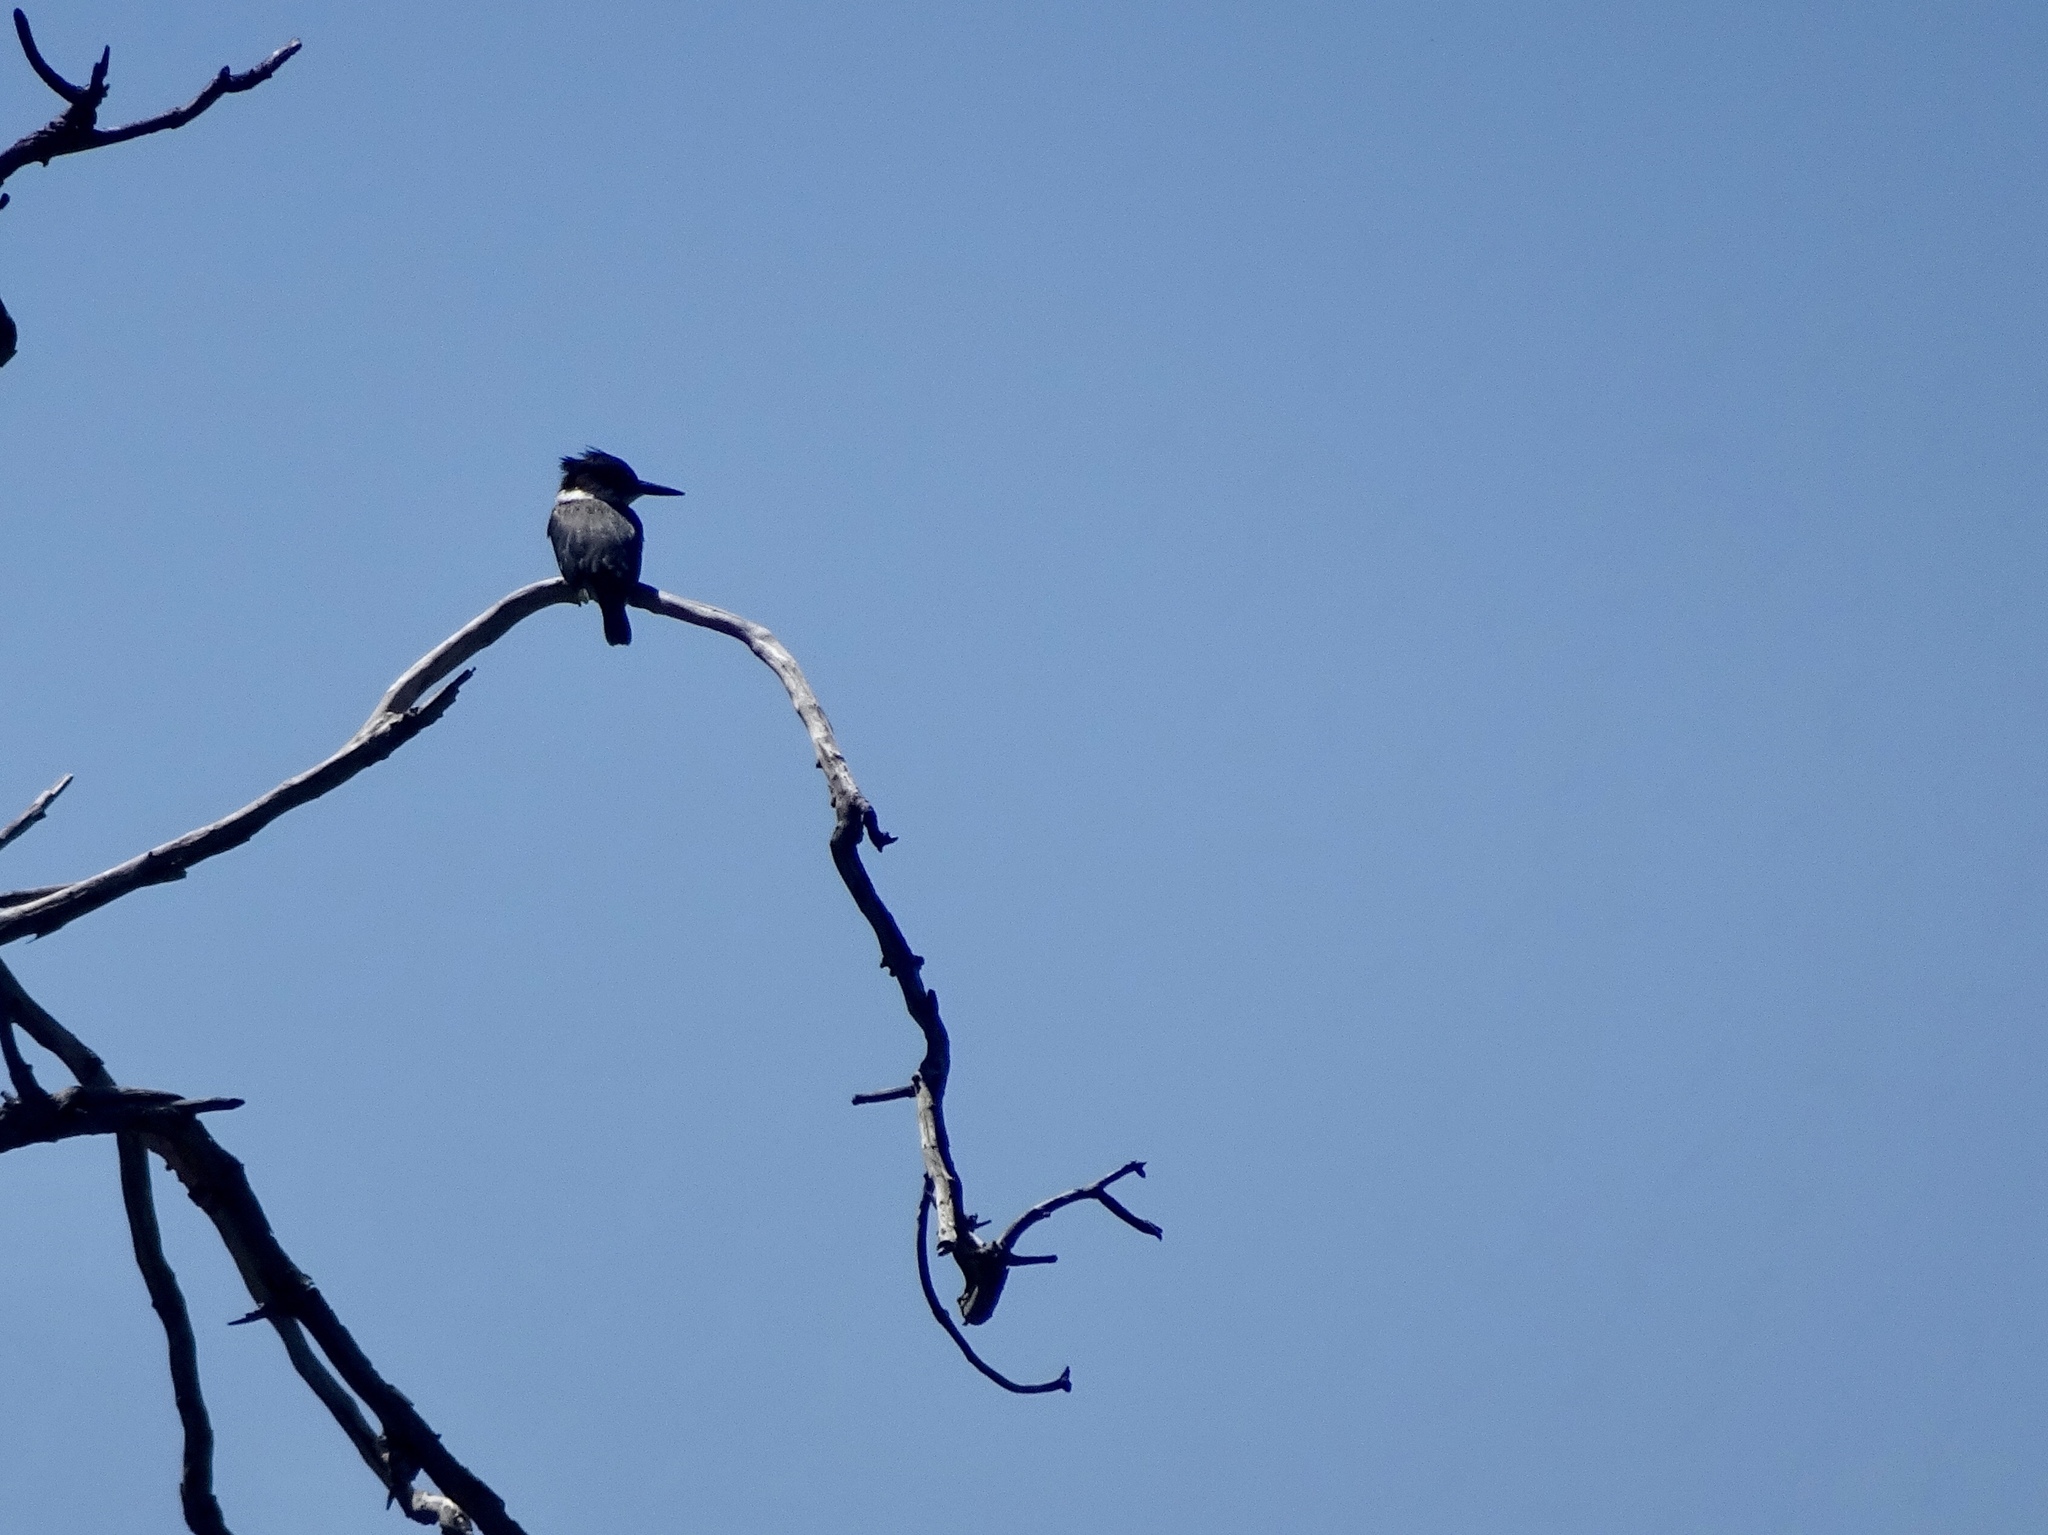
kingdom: Animalia
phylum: Chordata
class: Aves
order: Coraciiformes
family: Alcedinidae
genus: Megaceryle
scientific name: Megaceryle alcyon
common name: Belted kingfisher
